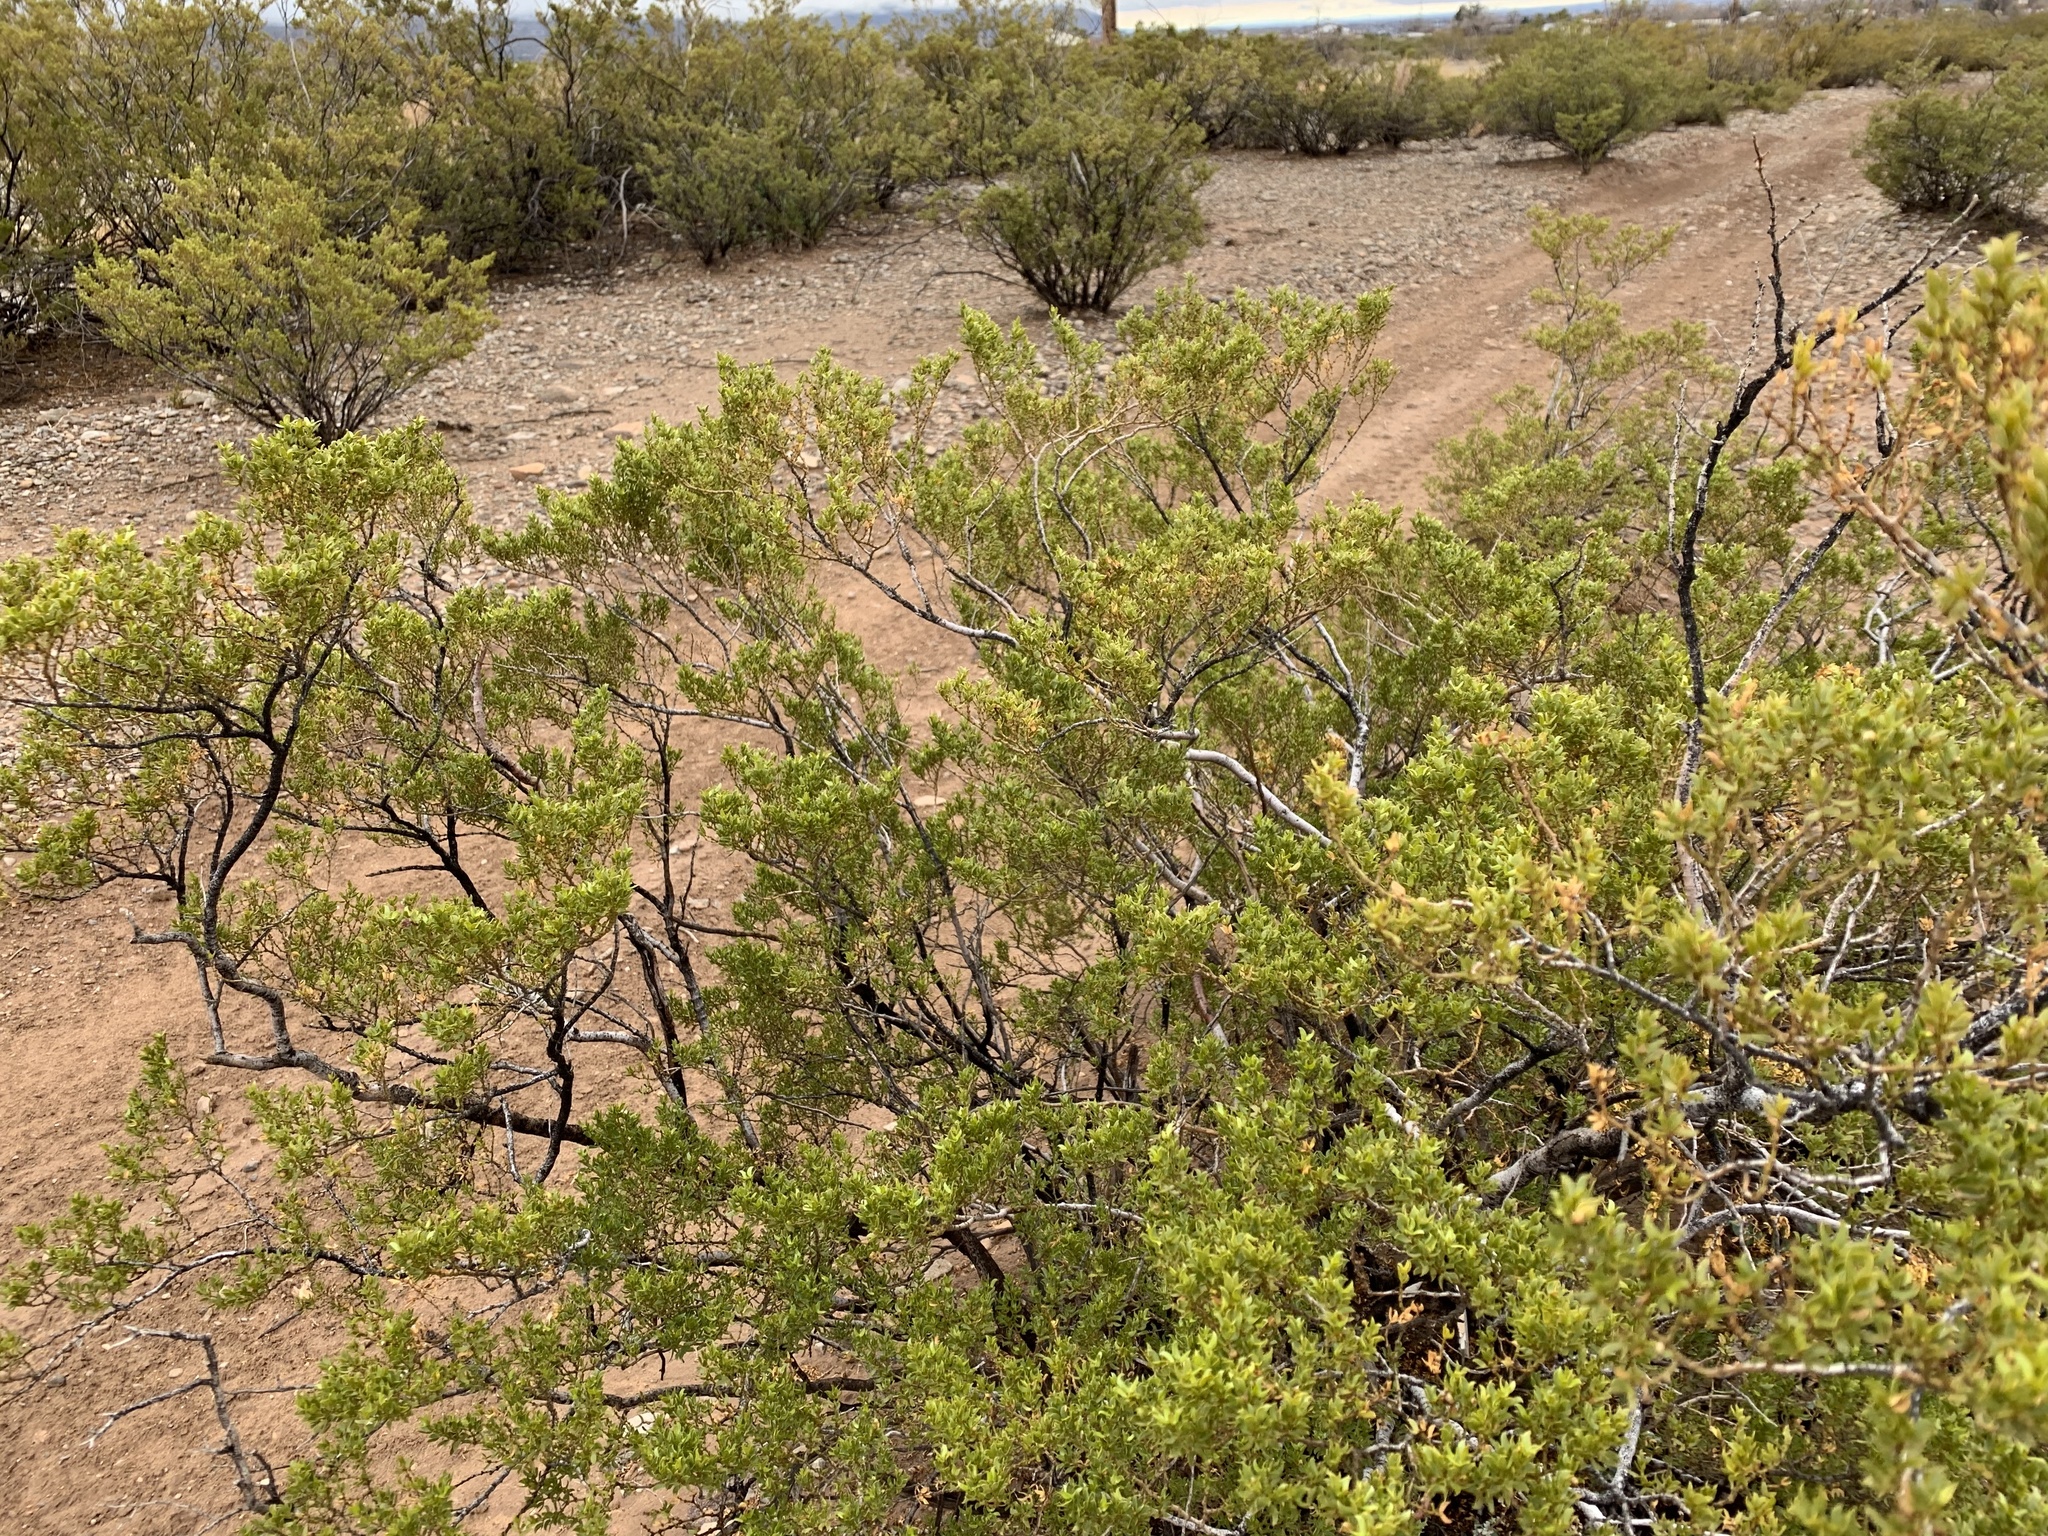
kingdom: Plantae
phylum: Tracheophyta
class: Magnoliopsida
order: Zygophyllales
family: Zygophyllaceae
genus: Larrea
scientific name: Larrea tridentata
